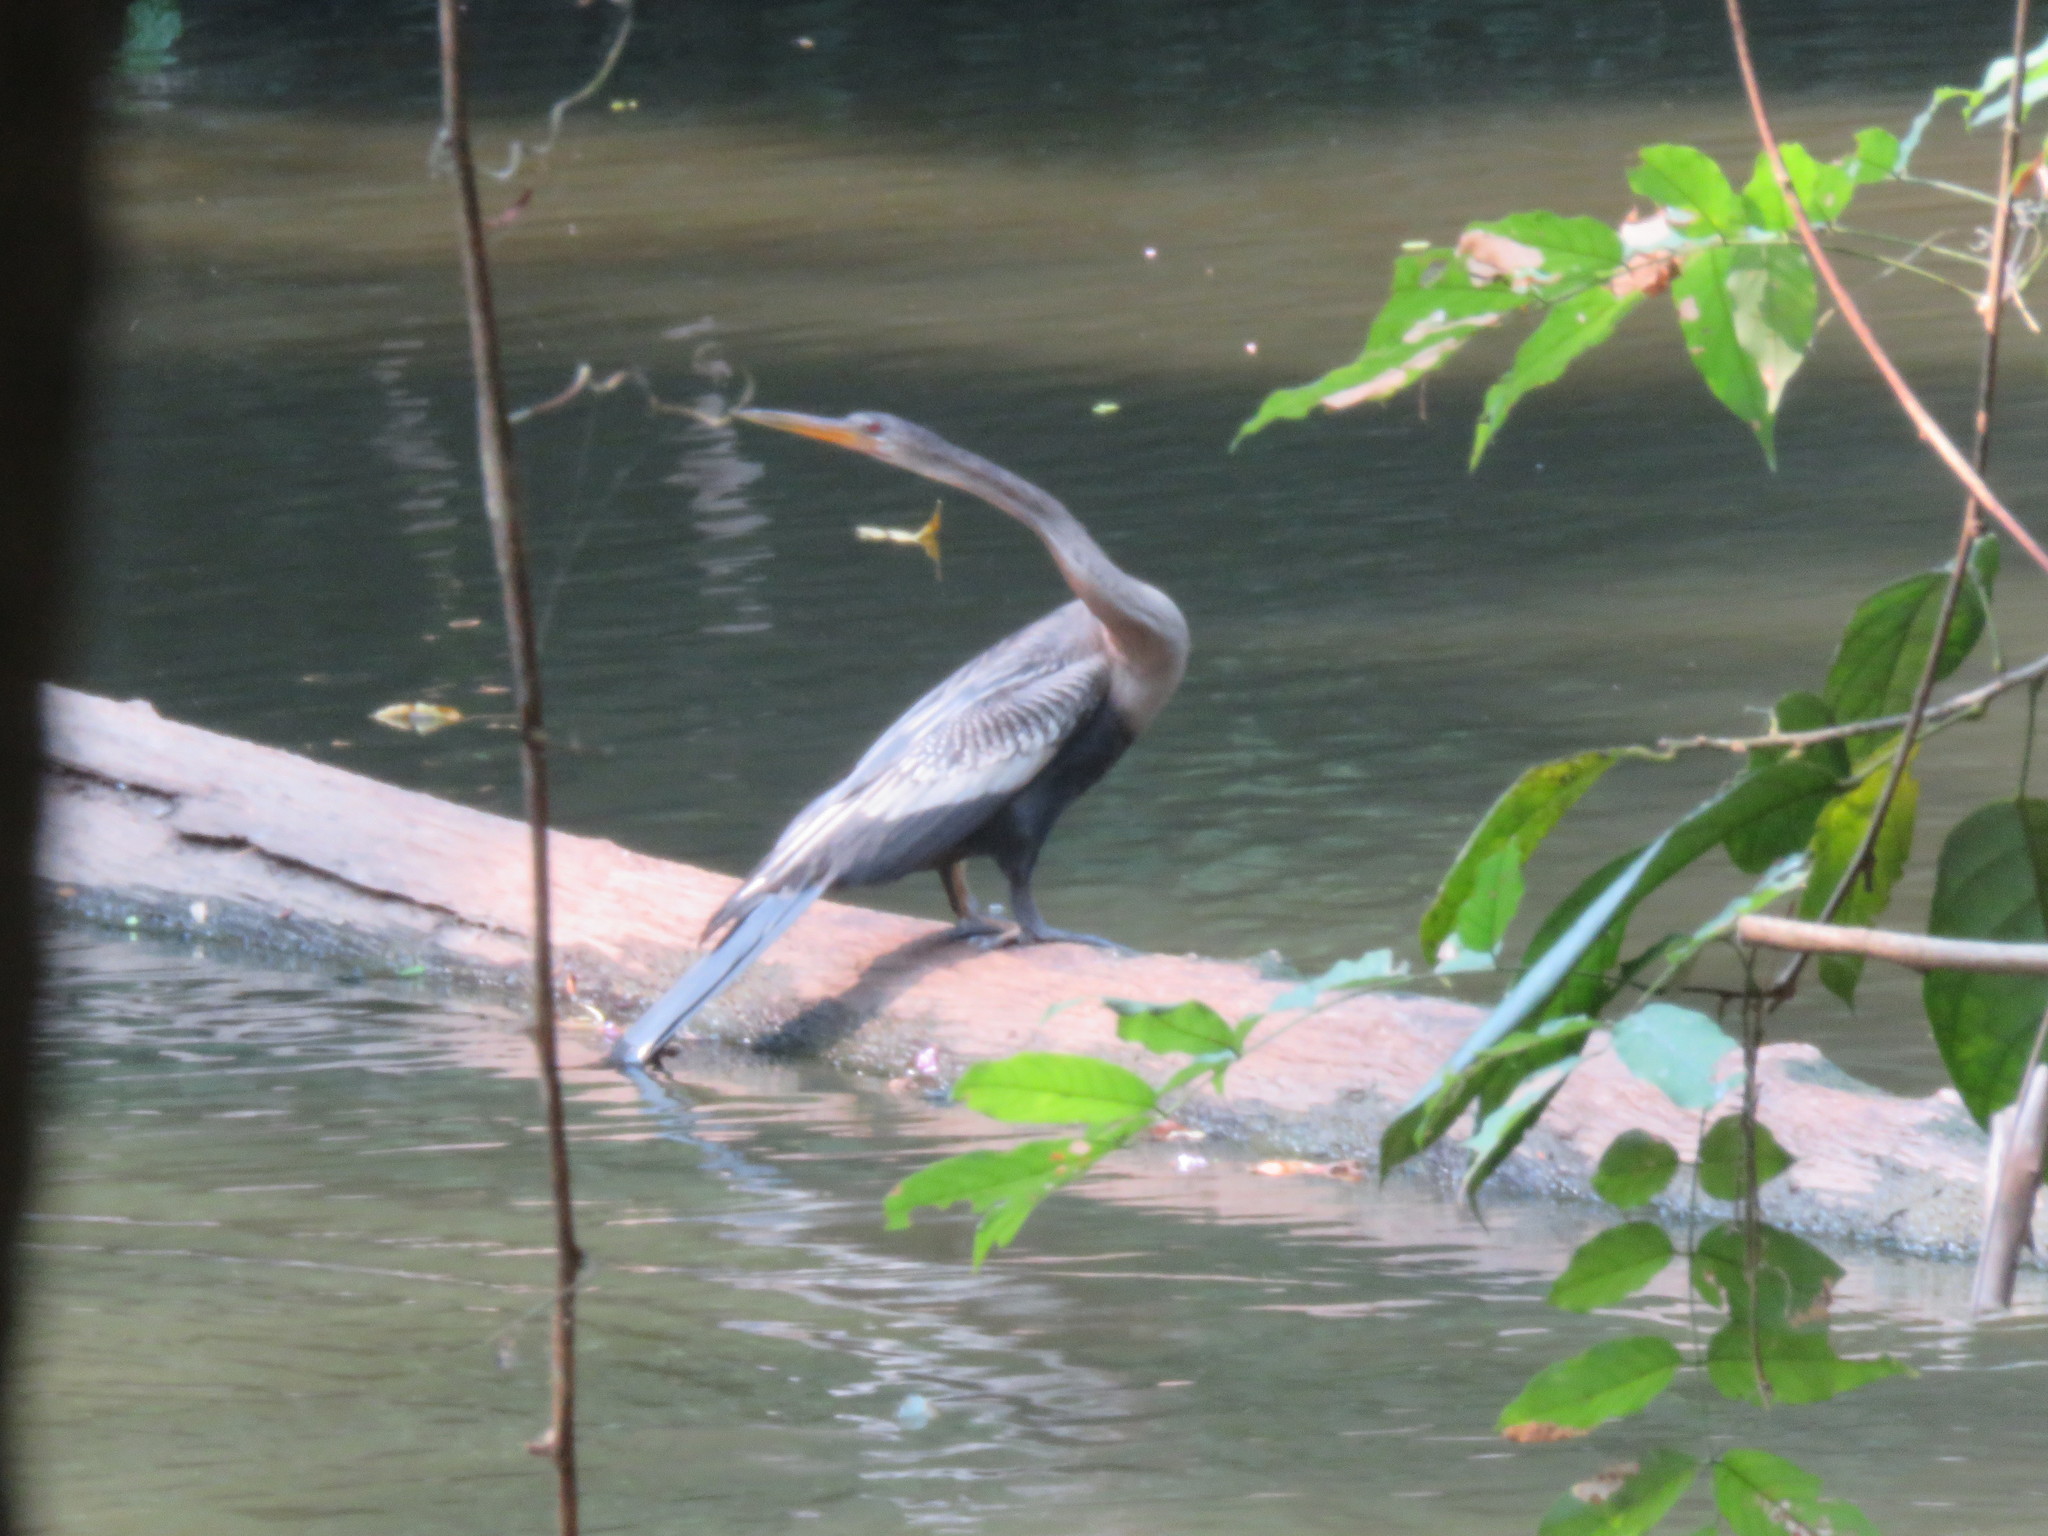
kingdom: Animalia
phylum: Chordata
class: Aves
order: Suliformes
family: Anhingidae
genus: Anhinga
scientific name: Anhinga anhinga
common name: Anhinga
